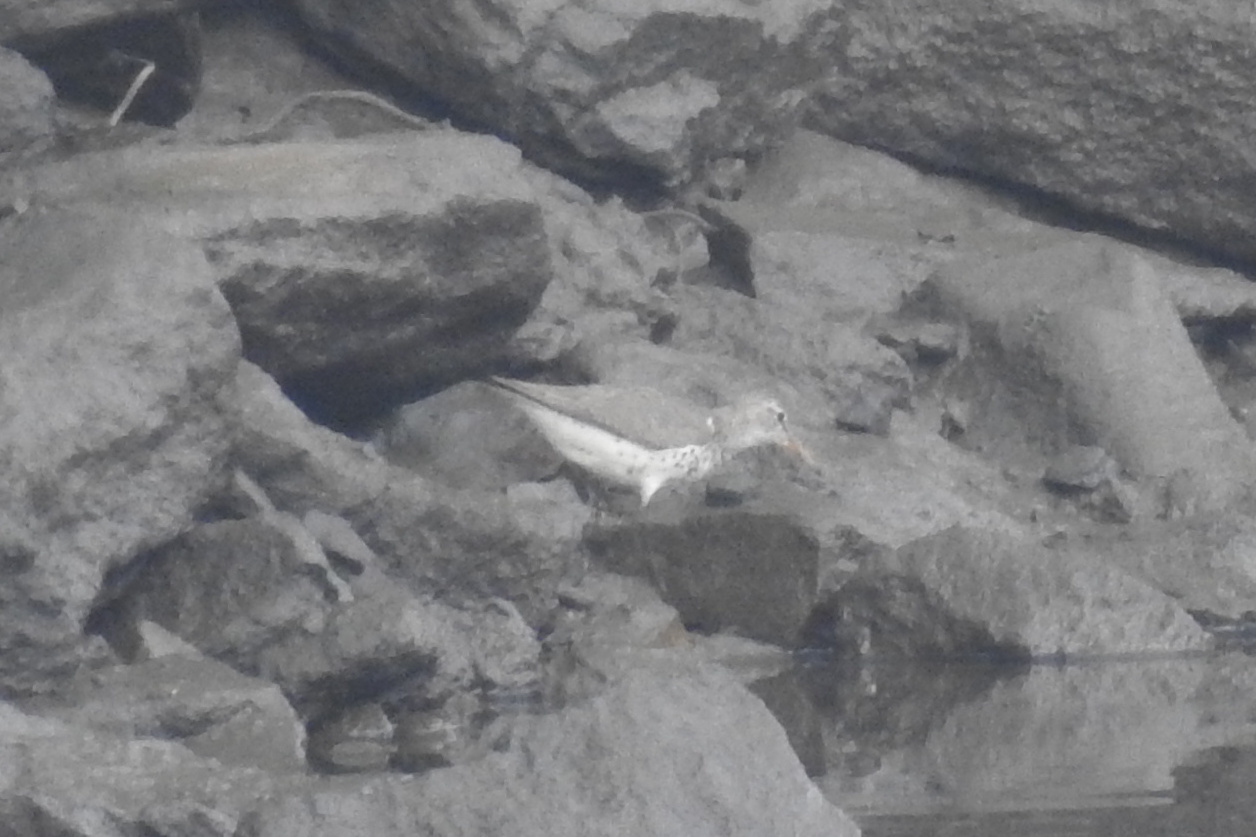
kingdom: Animalia
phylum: Chordata
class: Aves
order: Charadriiformes
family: Scolopacidae
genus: Actitis
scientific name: Actitis macularius
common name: Spotted sandpiper
